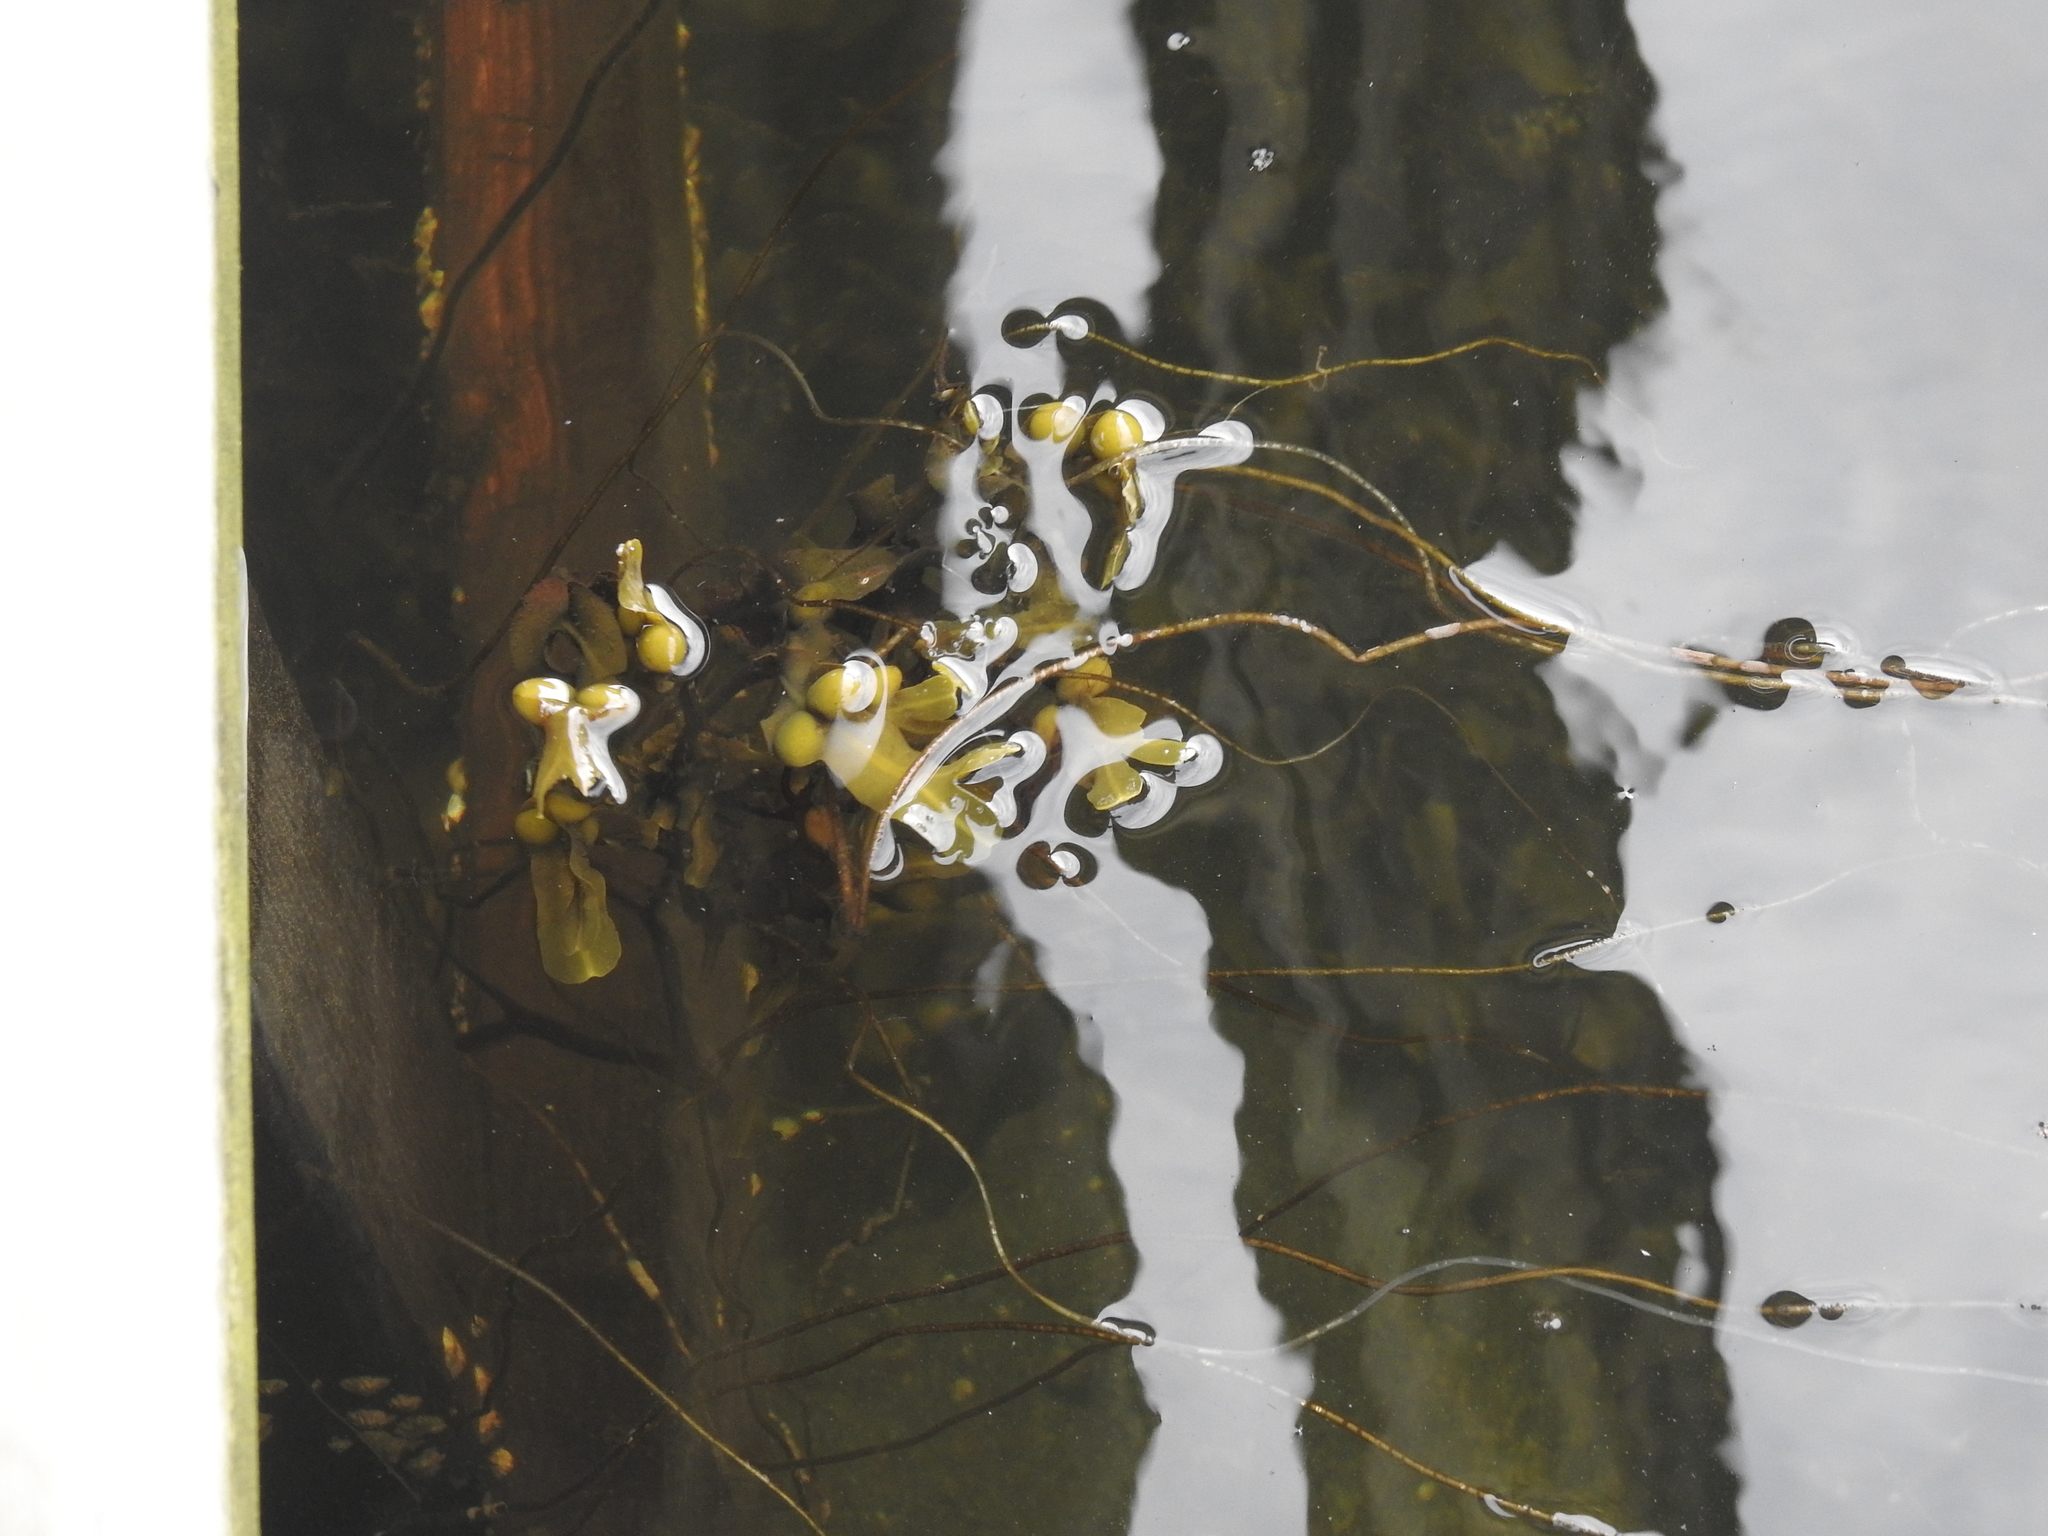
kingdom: Chromista
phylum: Ochrophyta
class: Phaeophyceae
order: Fucales
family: Fucaceae
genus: Fucus
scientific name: Fucus vesiculosus
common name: Bladder wrack
